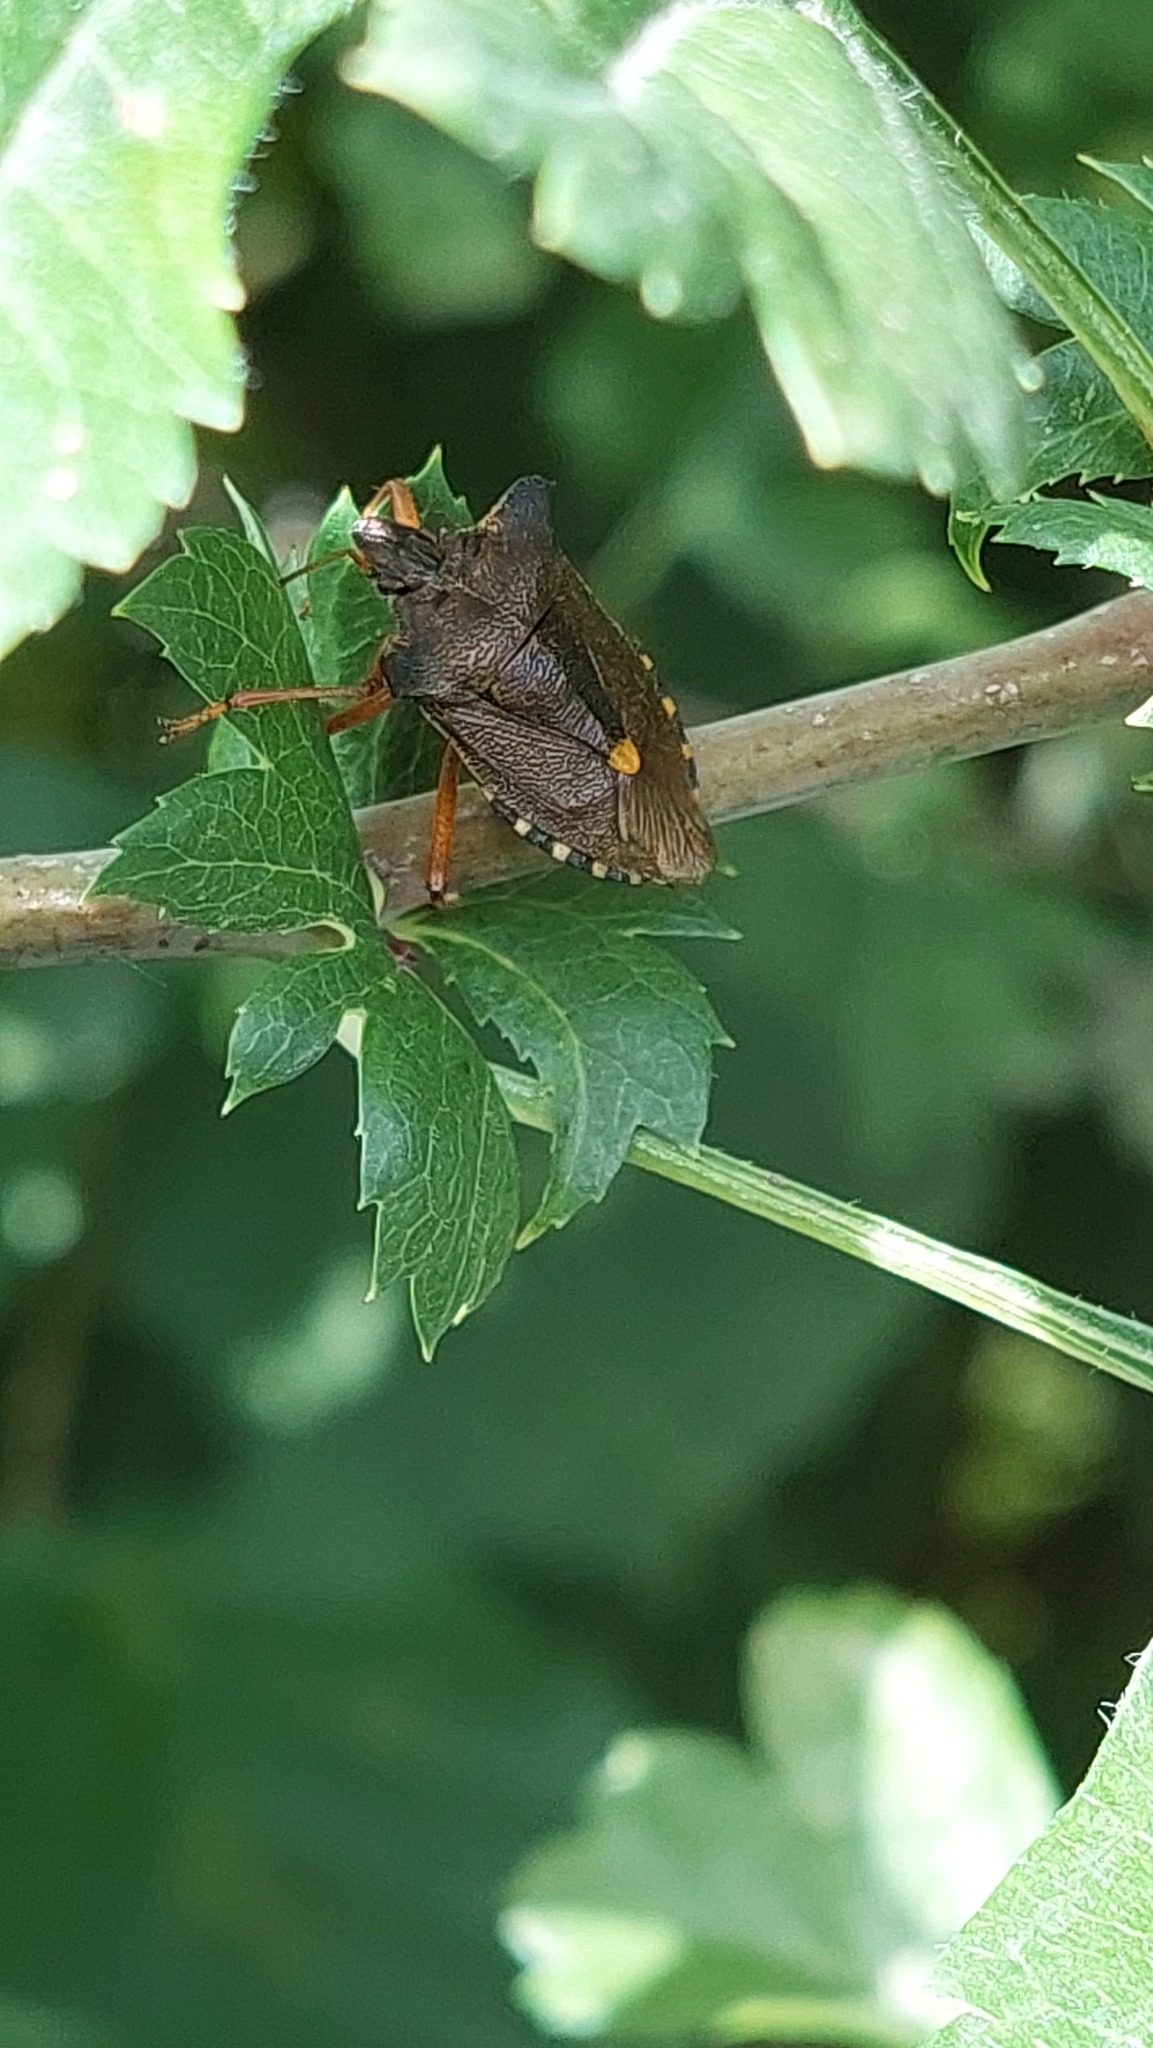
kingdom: Animalia
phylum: Arthropoda
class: Insecta
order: Hemiptera
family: Pentatomidae
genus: Pentatoma
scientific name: Pentatoma rufipes
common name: Forest bug
